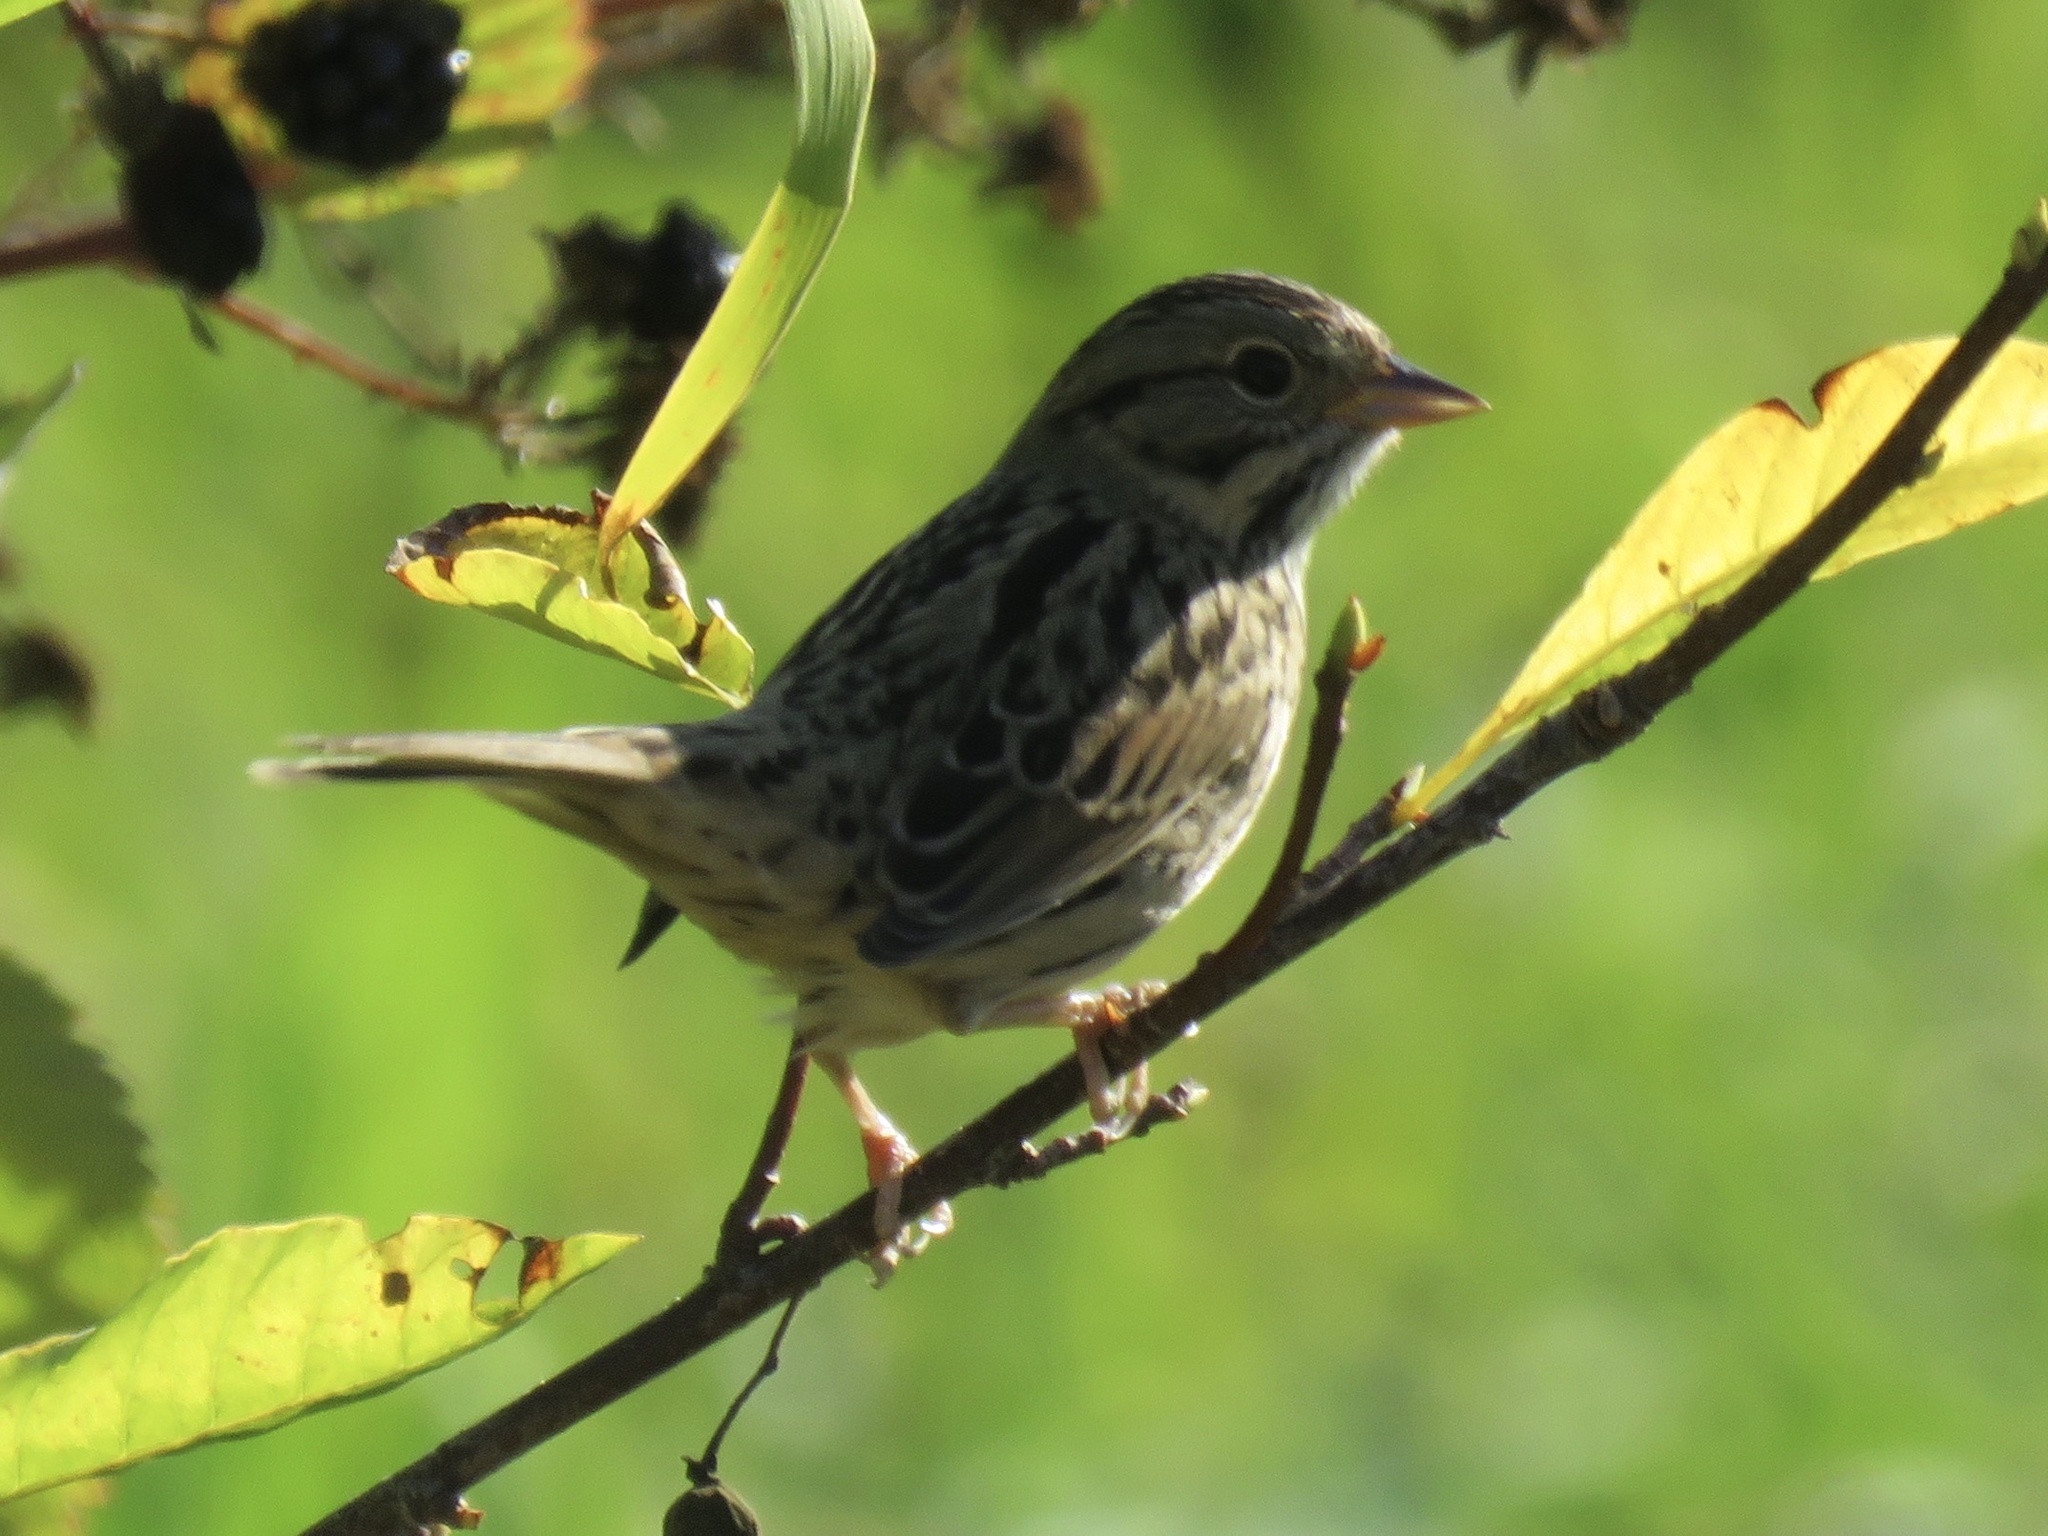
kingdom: Animalia
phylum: Chordata
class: Aves
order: Passeriformes
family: Passerellidae
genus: Melospiza
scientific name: Melospiza lincolnii
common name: Lincoln's sparrow
